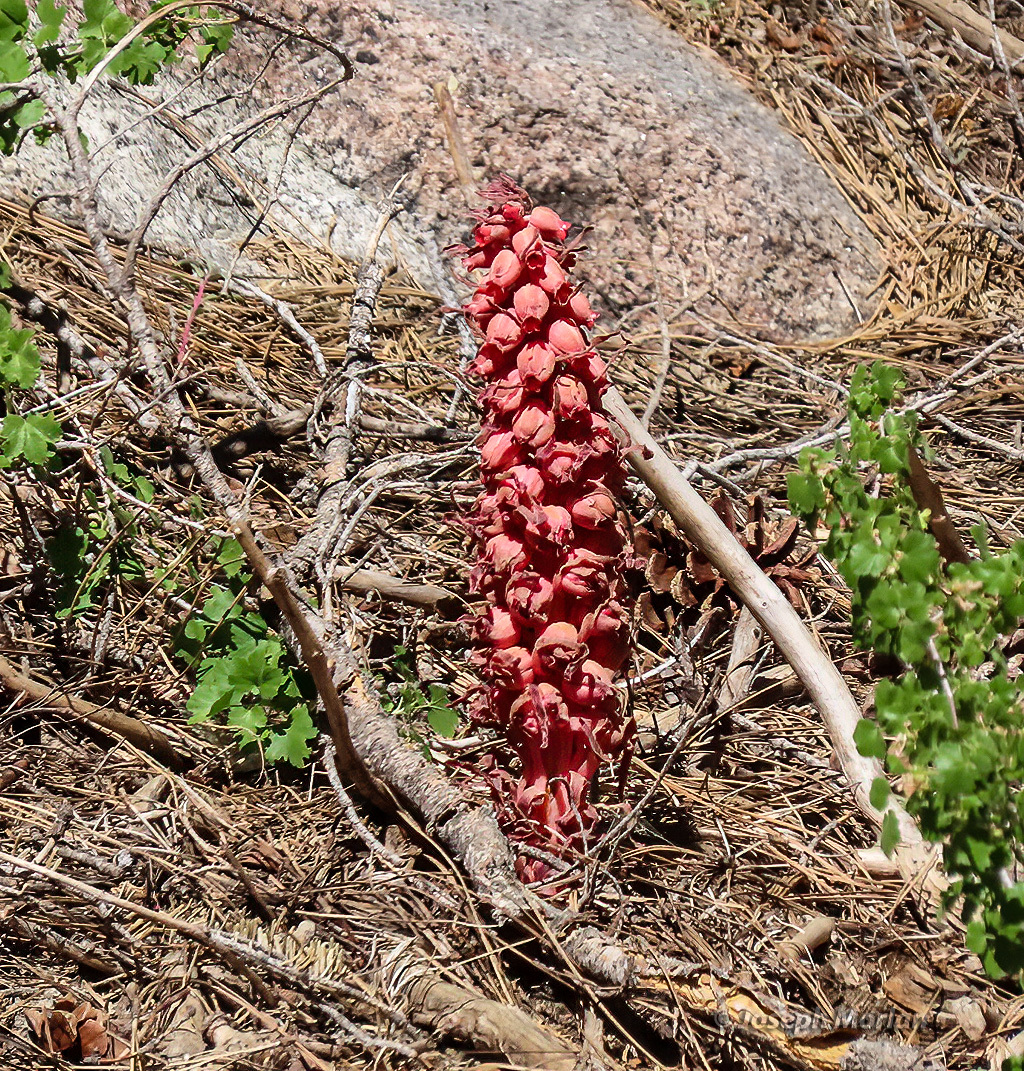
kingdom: Plantae
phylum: Tracheophyta
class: Magnoliopsida
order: Ericales
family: Ericaceae
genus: Sarcodes
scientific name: Sarcodes sanguinea
